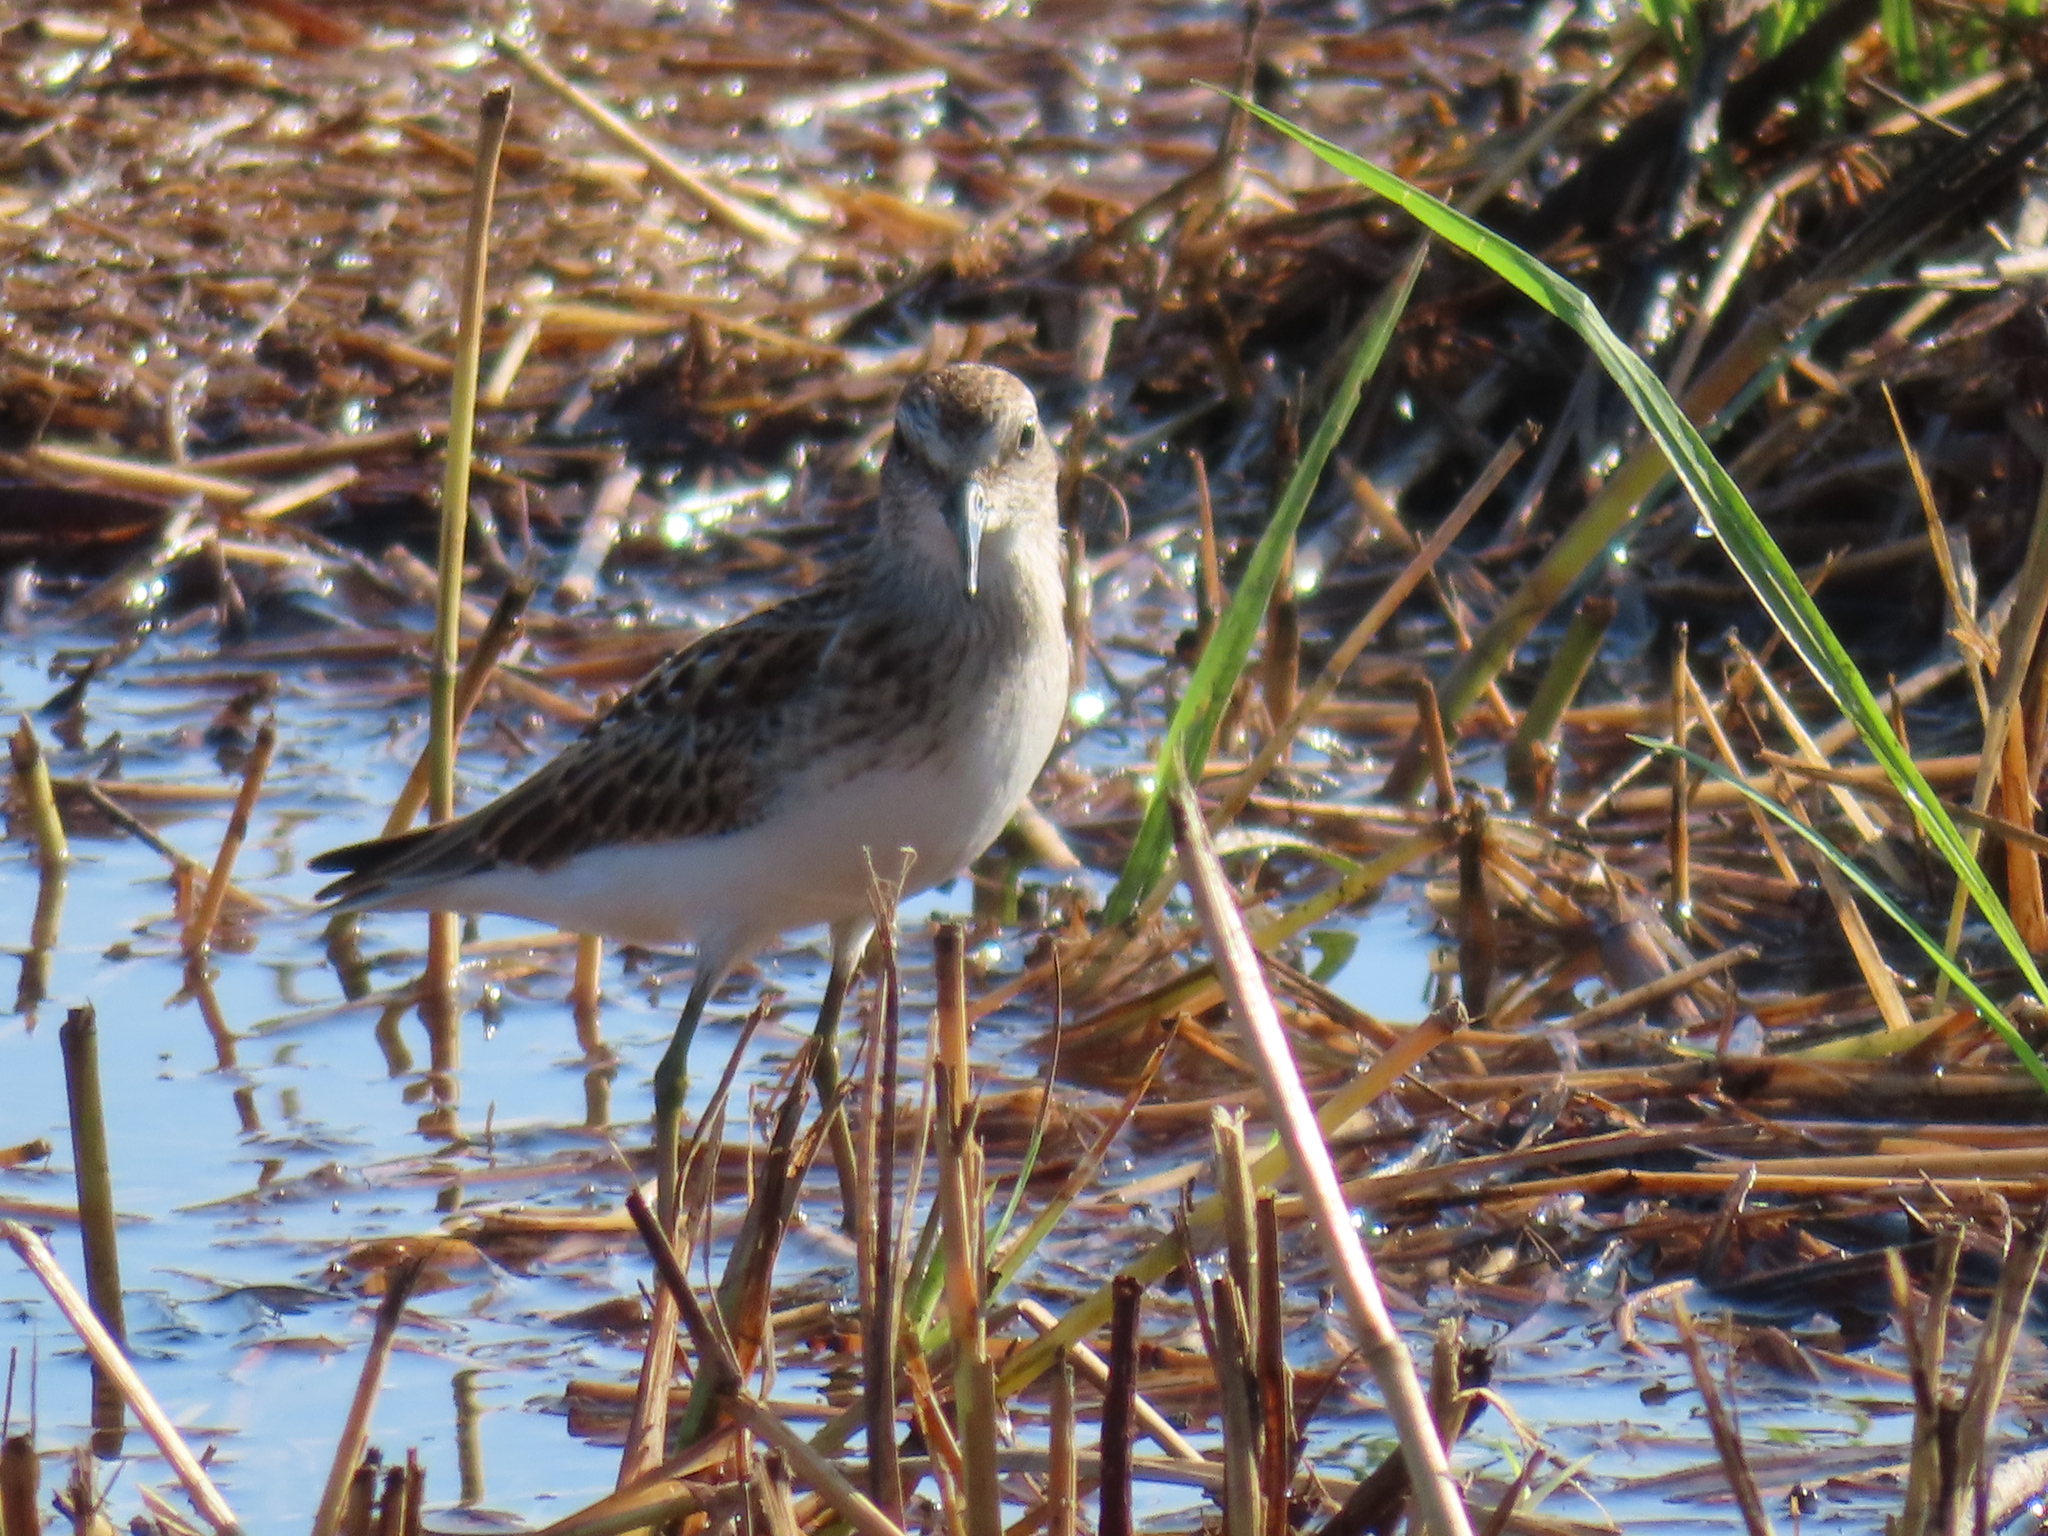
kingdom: Animalia
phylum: Chordata
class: Aves
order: Charadriiformes
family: Scolopacidae
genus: Calidris
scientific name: Calidris minutilla
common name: Least sandpiper
